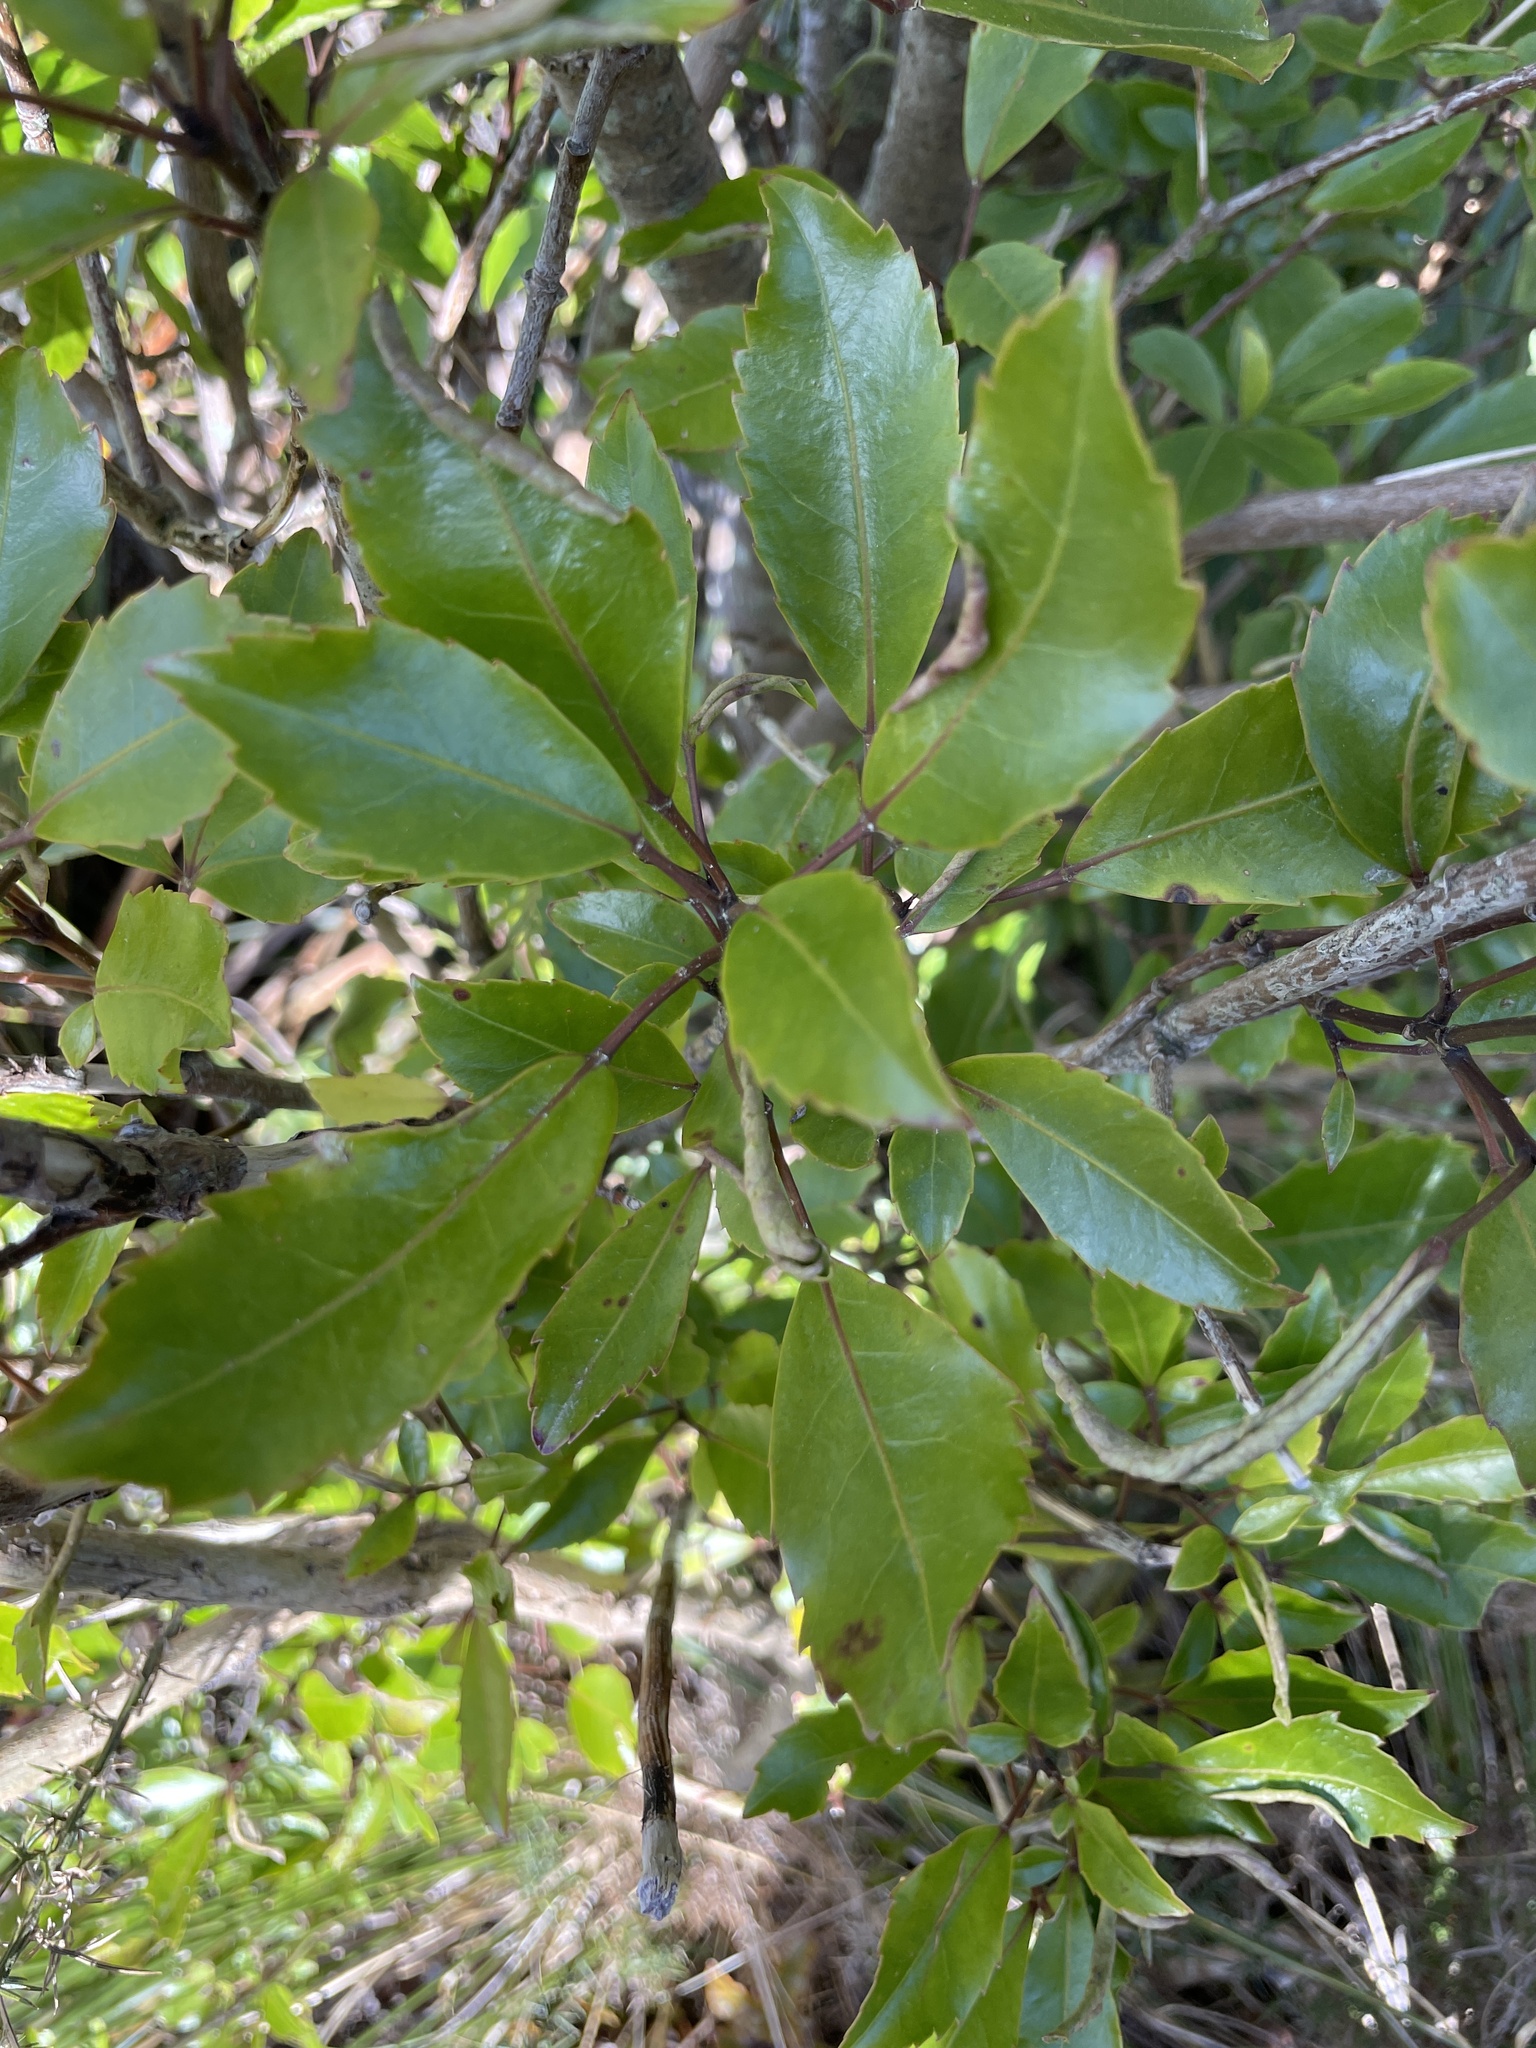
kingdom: Plantae
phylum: Tracheophyta
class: Magnoliopsida
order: Apiales
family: Araliaceae
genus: Raukaua
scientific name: Raukaua simplex
